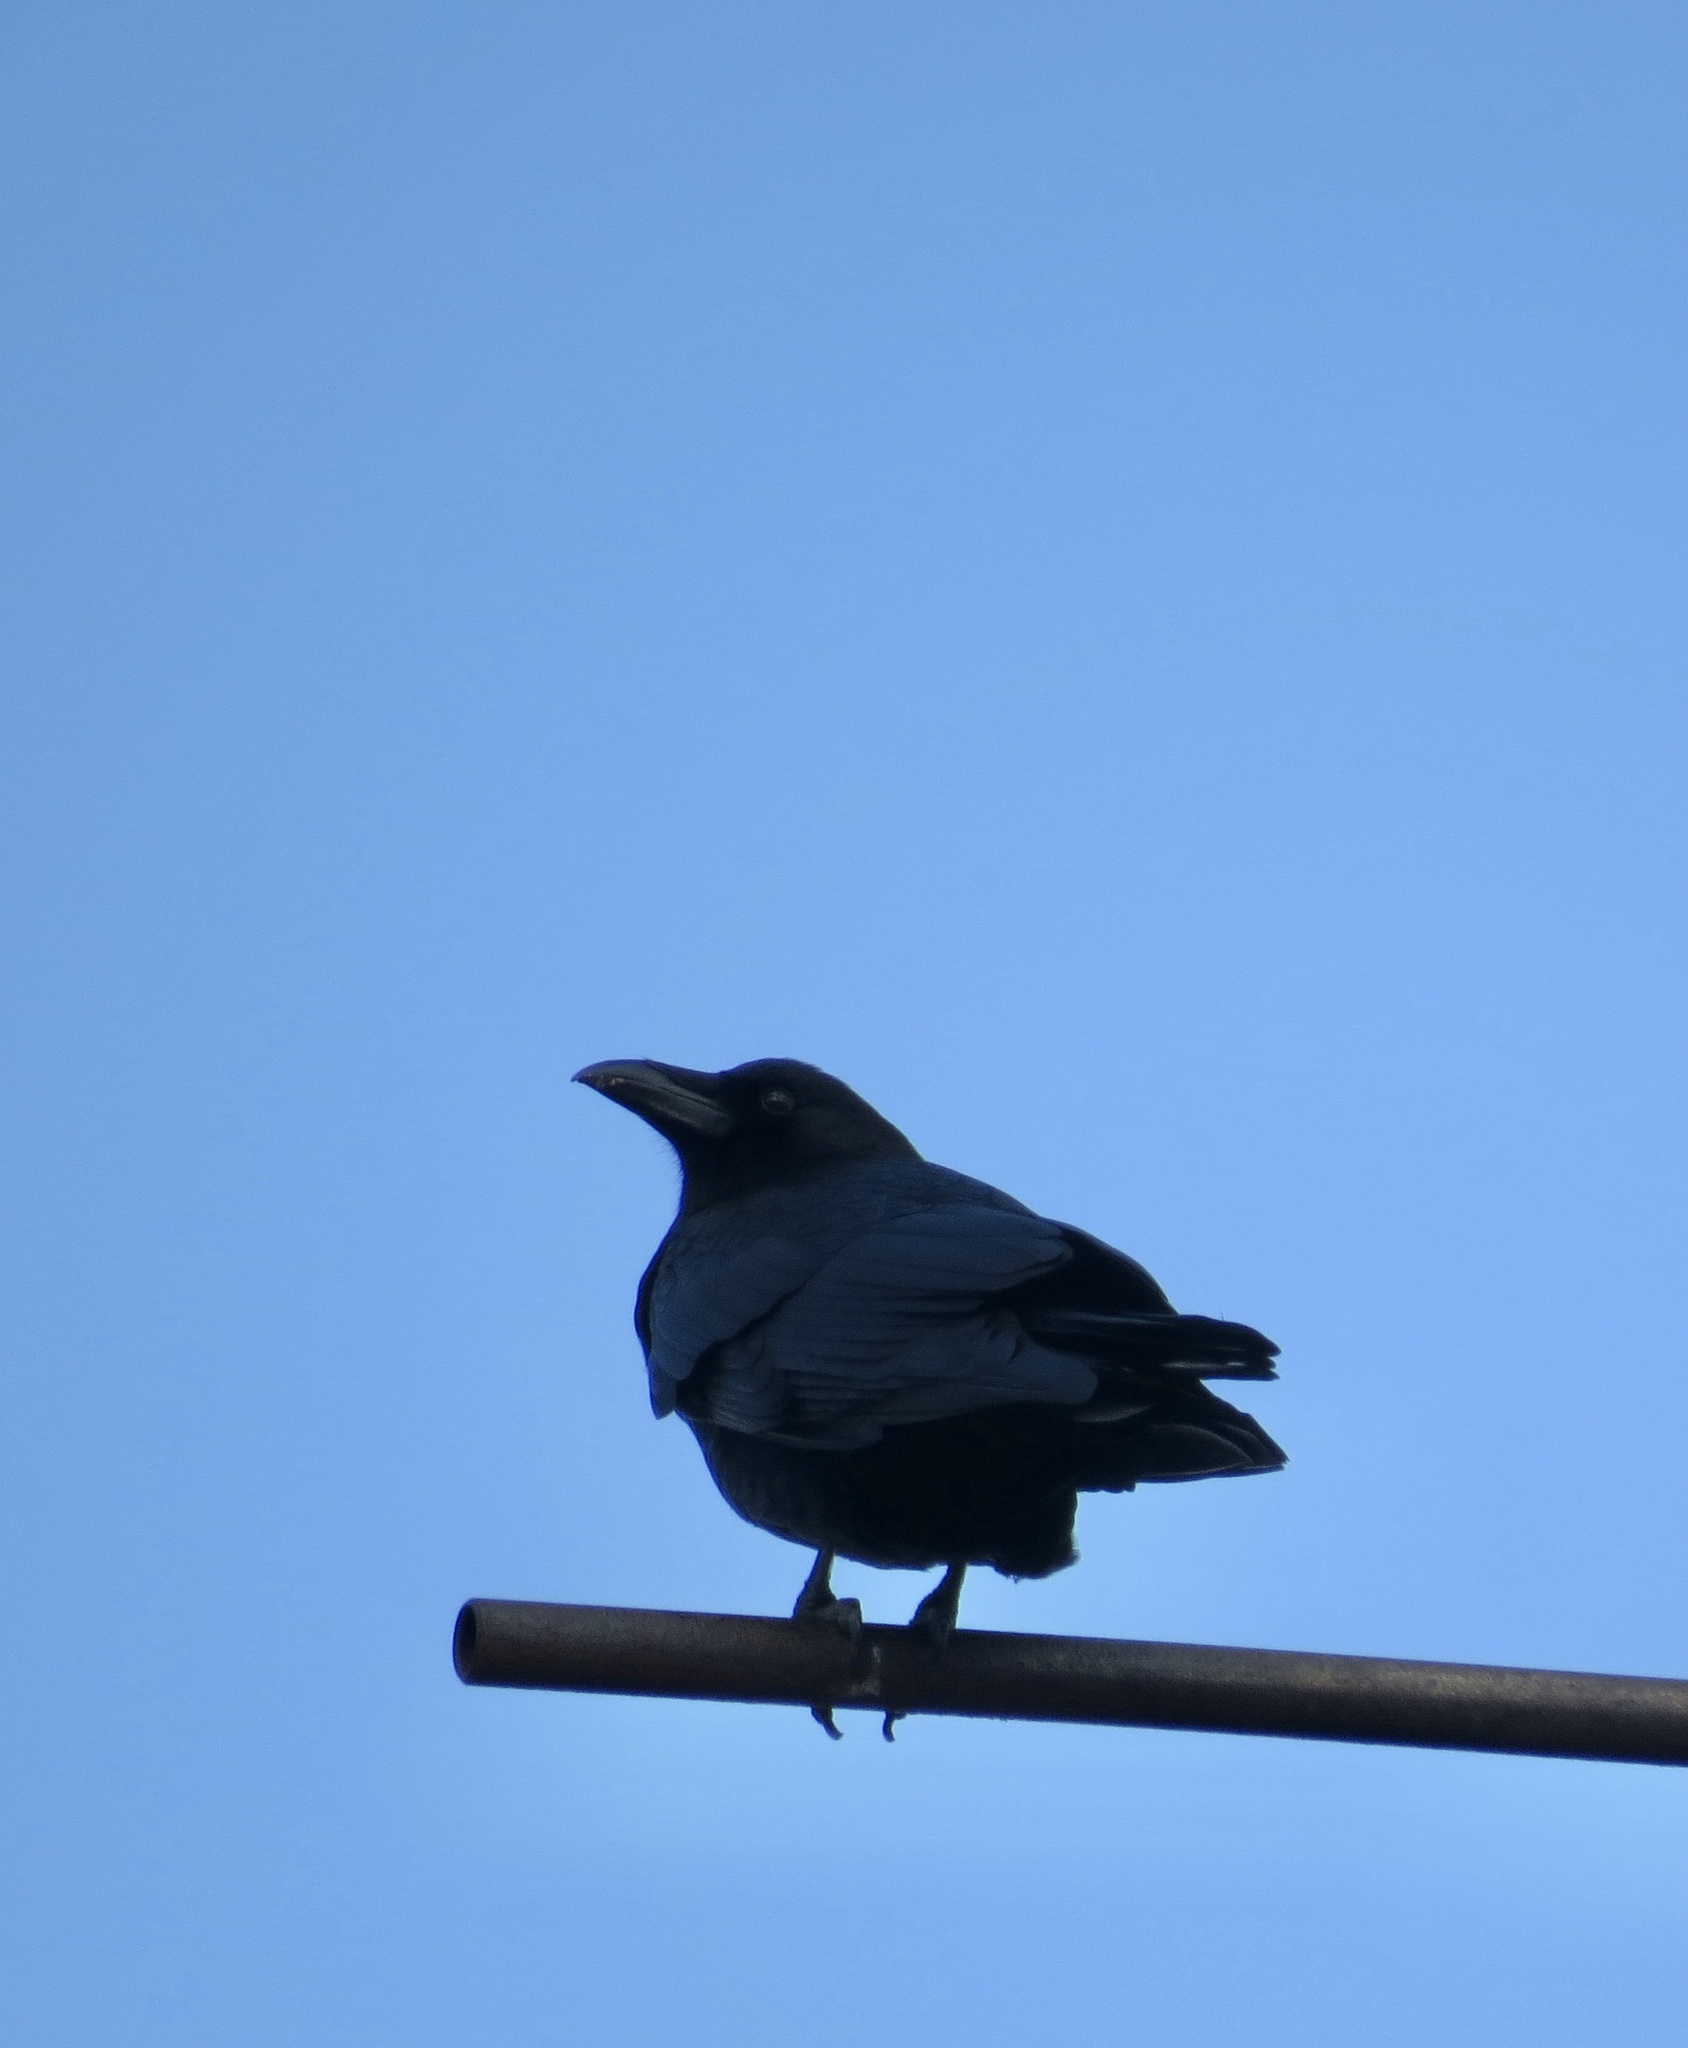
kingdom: Animalia
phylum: Chordata
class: Aves
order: Passeriformes
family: Corvidae
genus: Corvus
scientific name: Corvus brachyrhynchos
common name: American crow
